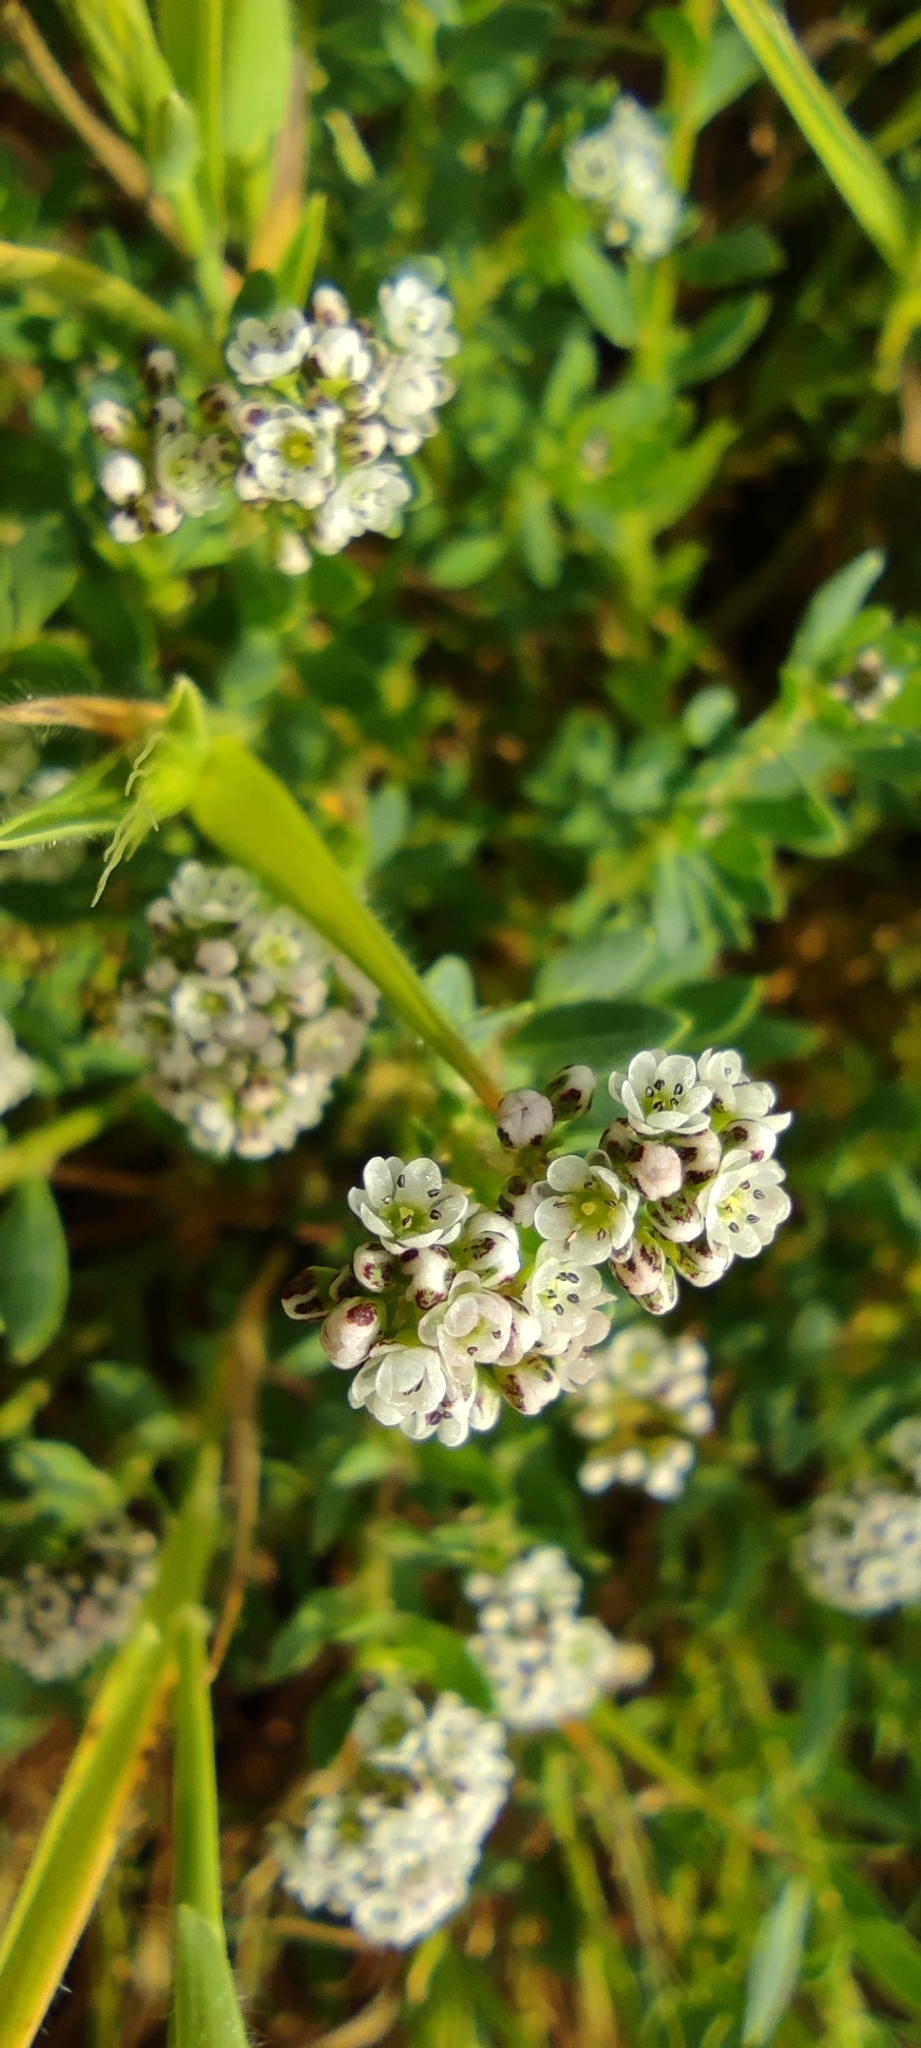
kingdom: Plantae
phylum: Tracheophyta
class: Magnoliopsida
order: Caryophyllales
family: Caryophyllaceae
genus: Corrigiola
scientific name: Corrigiola litoralis
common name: Strapwort
